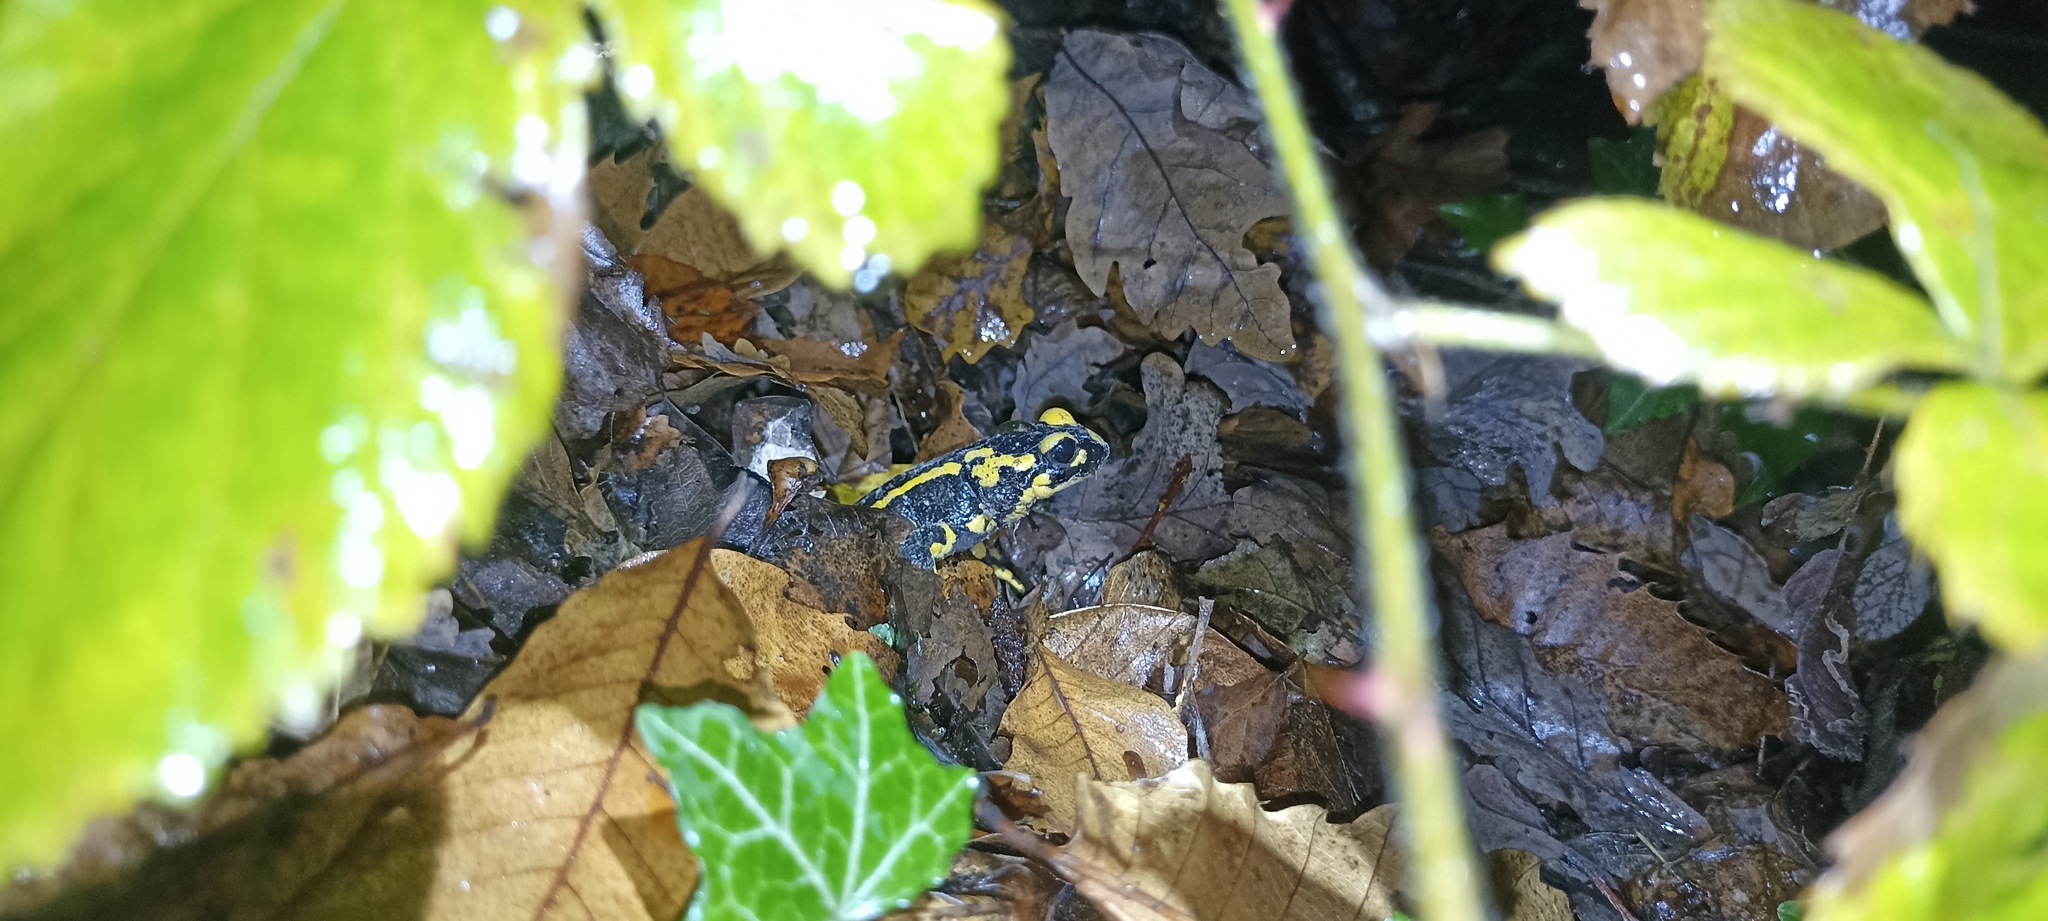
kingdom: Animalia
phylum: Chordata
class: Amphibia
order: Caudata
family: Salamandridae
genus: Salamandra
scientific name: Salamandra salamandra
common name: Fire salamander
